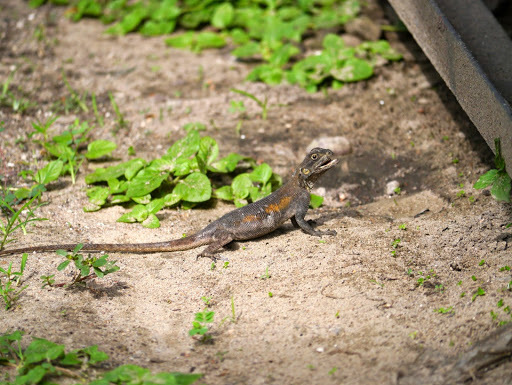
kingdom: Animalia
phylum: Chordata
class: Squamata
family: Agamidae
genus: Agama
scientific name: Agama agama
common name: Common agama
